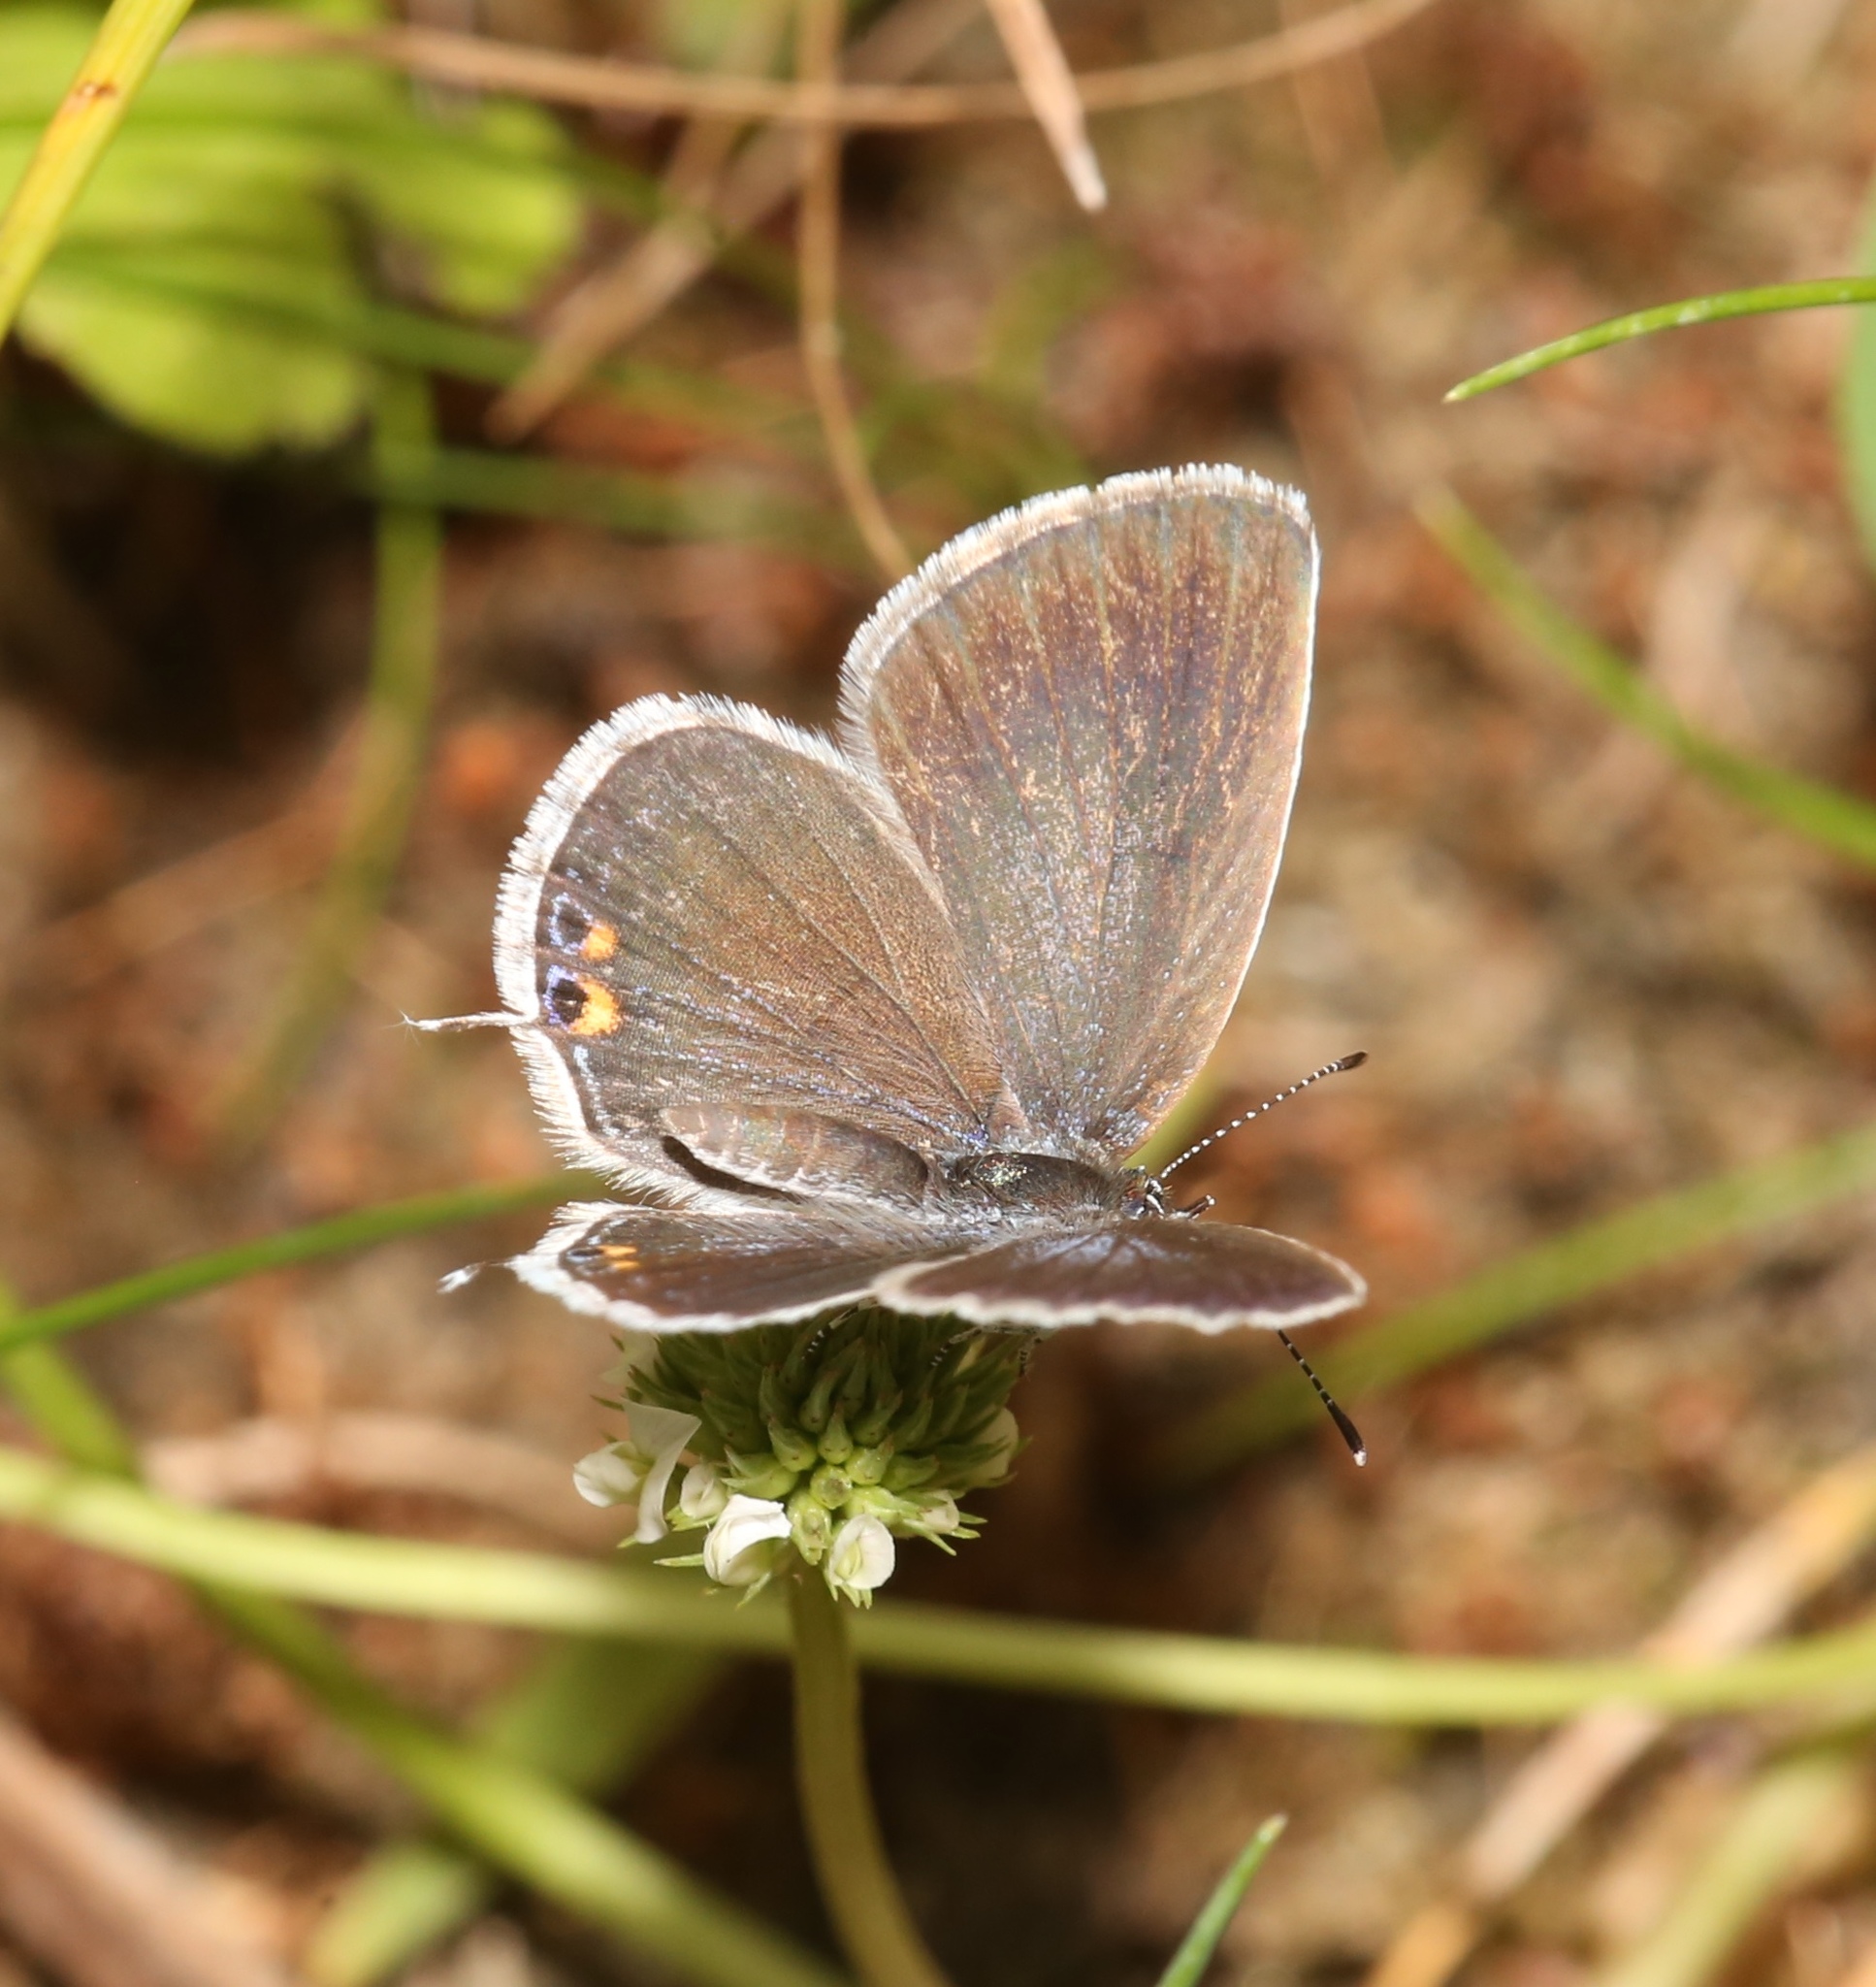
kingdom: Animalia
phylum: Arthropoda
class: Insecta
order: Lepidoptera
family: Lycaenidae
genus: Elkalyce
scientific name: Elkalyce comyntas
